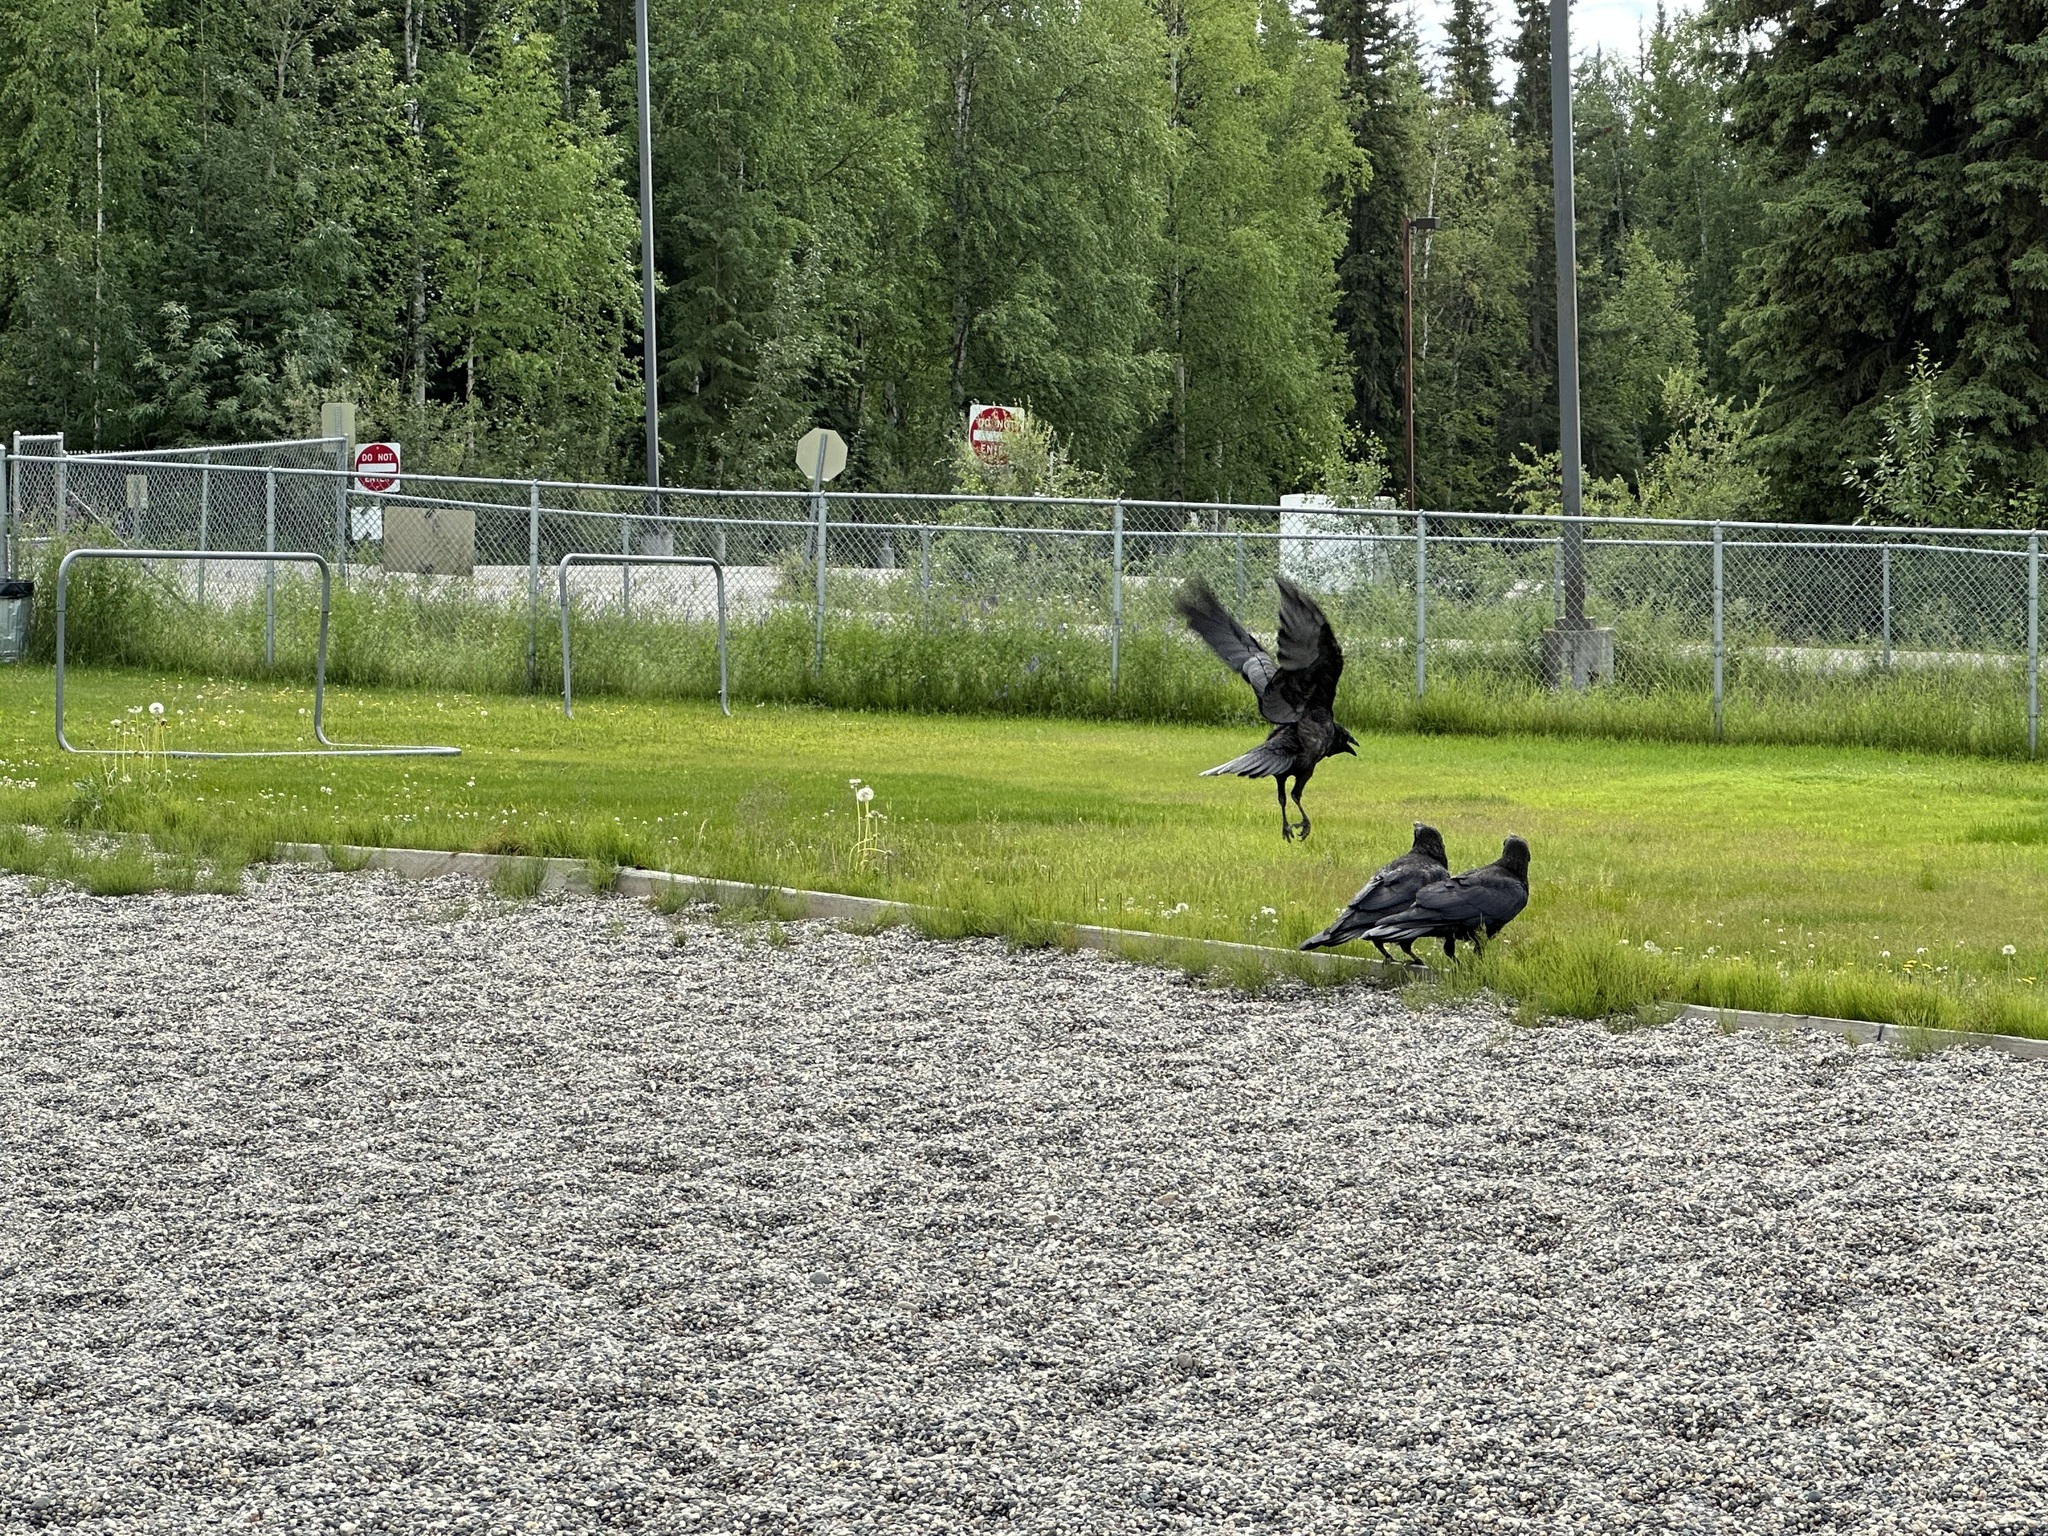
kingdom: Animalia
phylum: Chordata
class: Aves
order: Passeriformes
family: Corvidae
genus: Corvus
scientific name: Corvus corax
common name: Common raven
